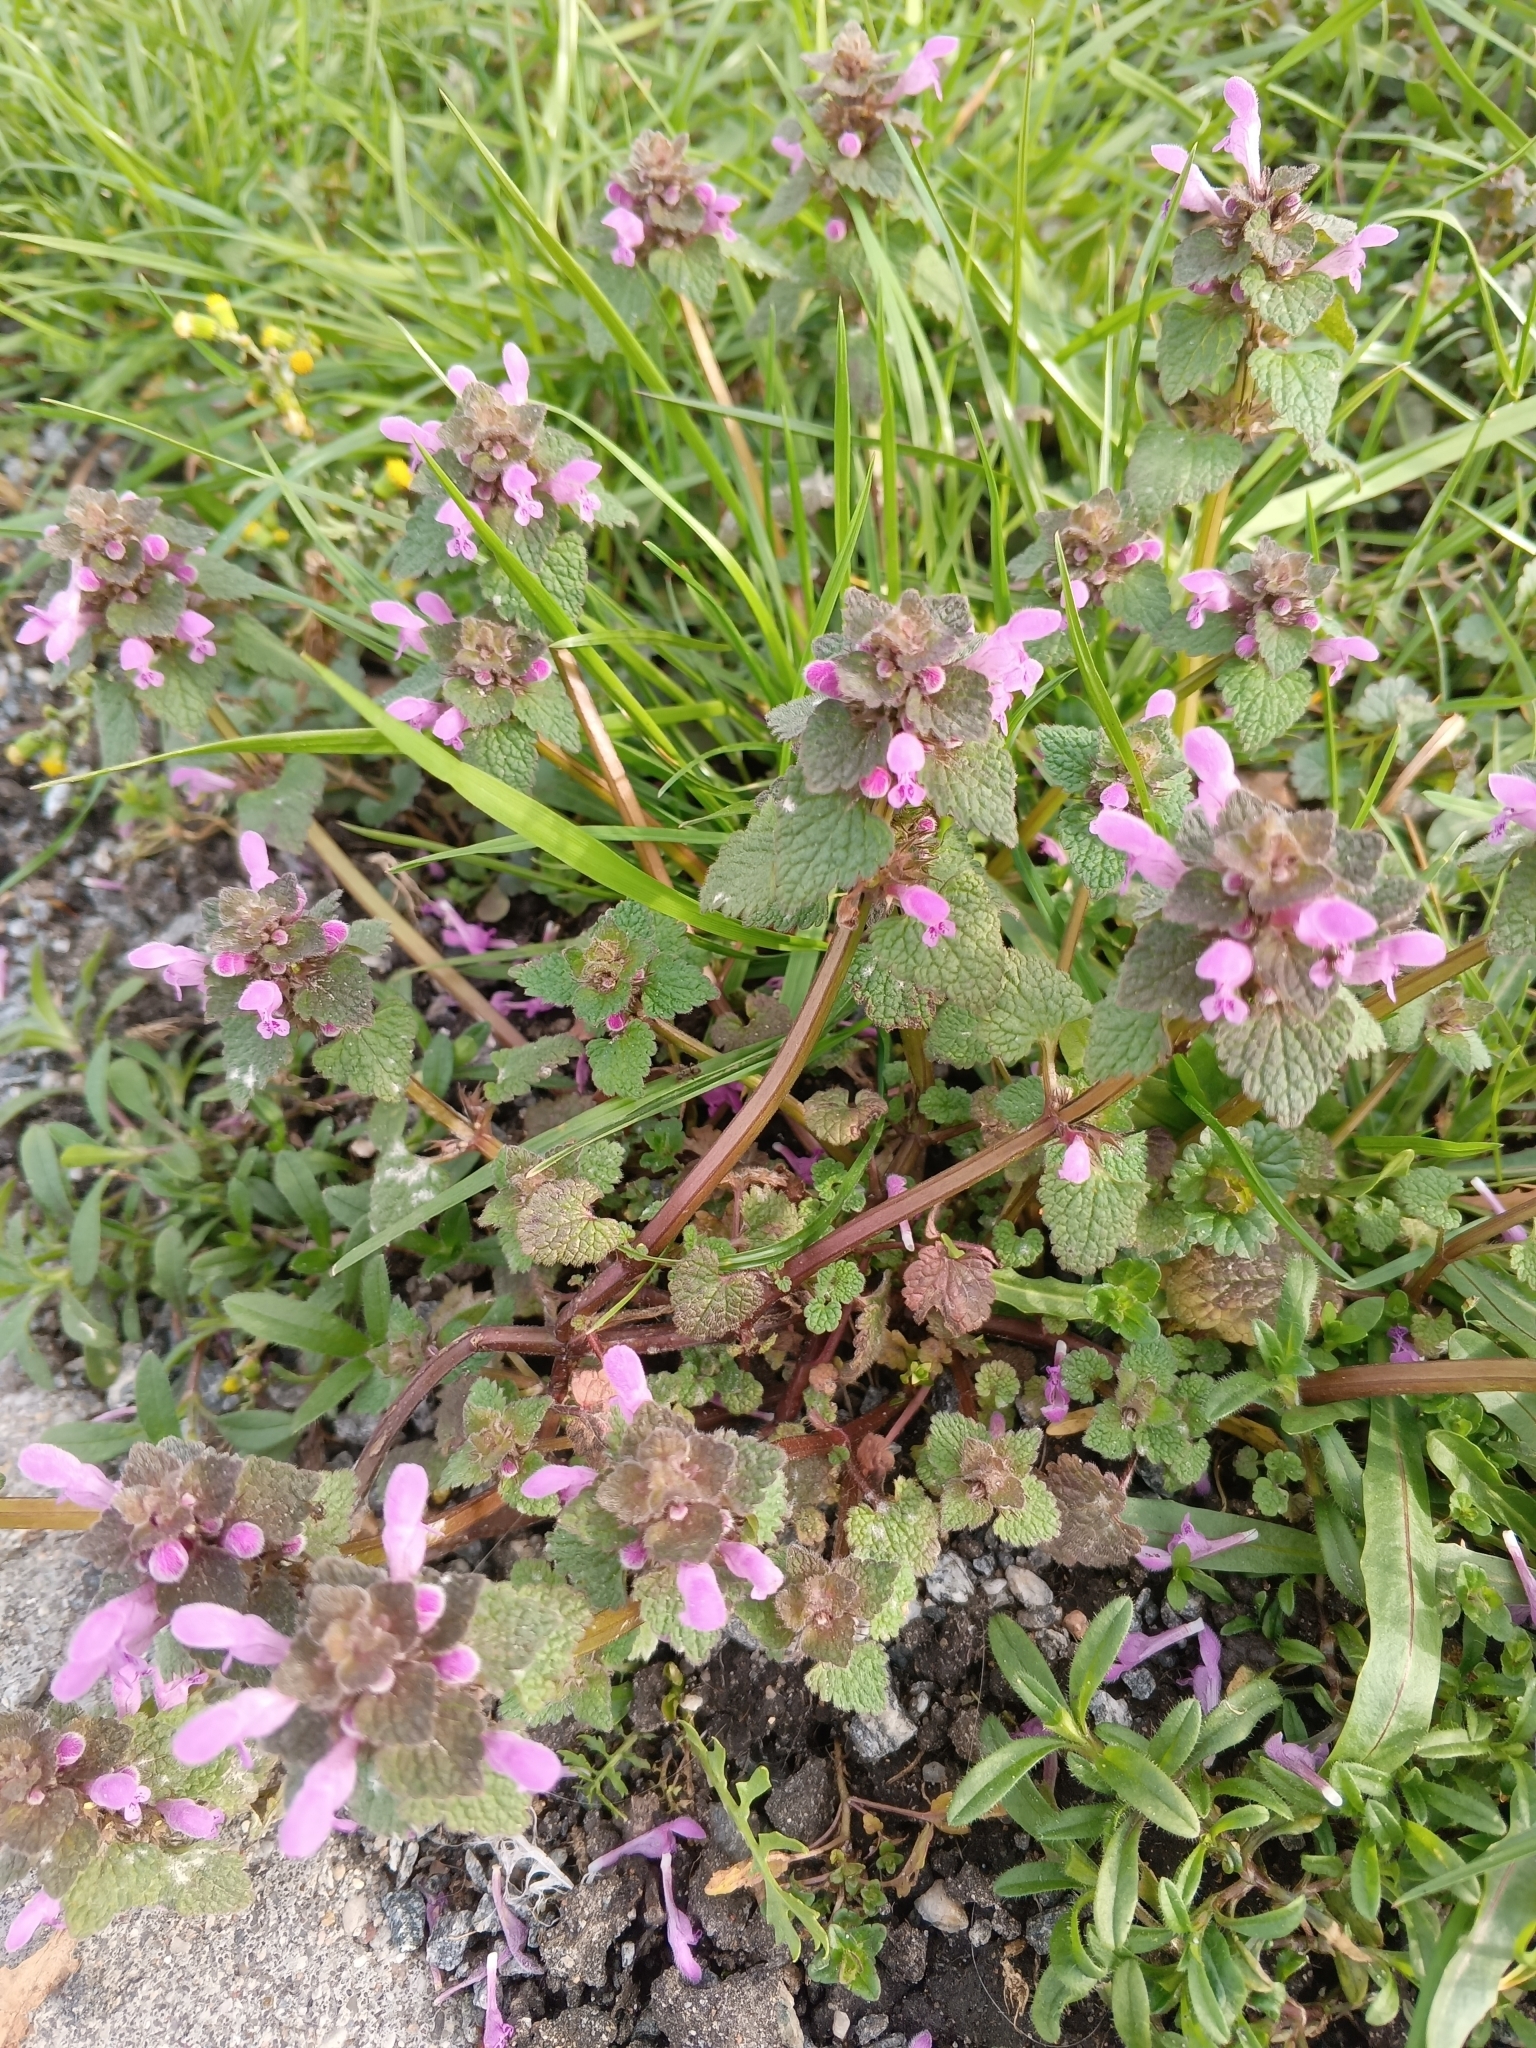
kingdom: Plantae
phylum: Tracheophyta
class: Magnoliopsida
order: Lamiales
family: Lamiaceae
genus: Lamium
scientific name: Lamium purpureum
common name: Red dead-nettle
